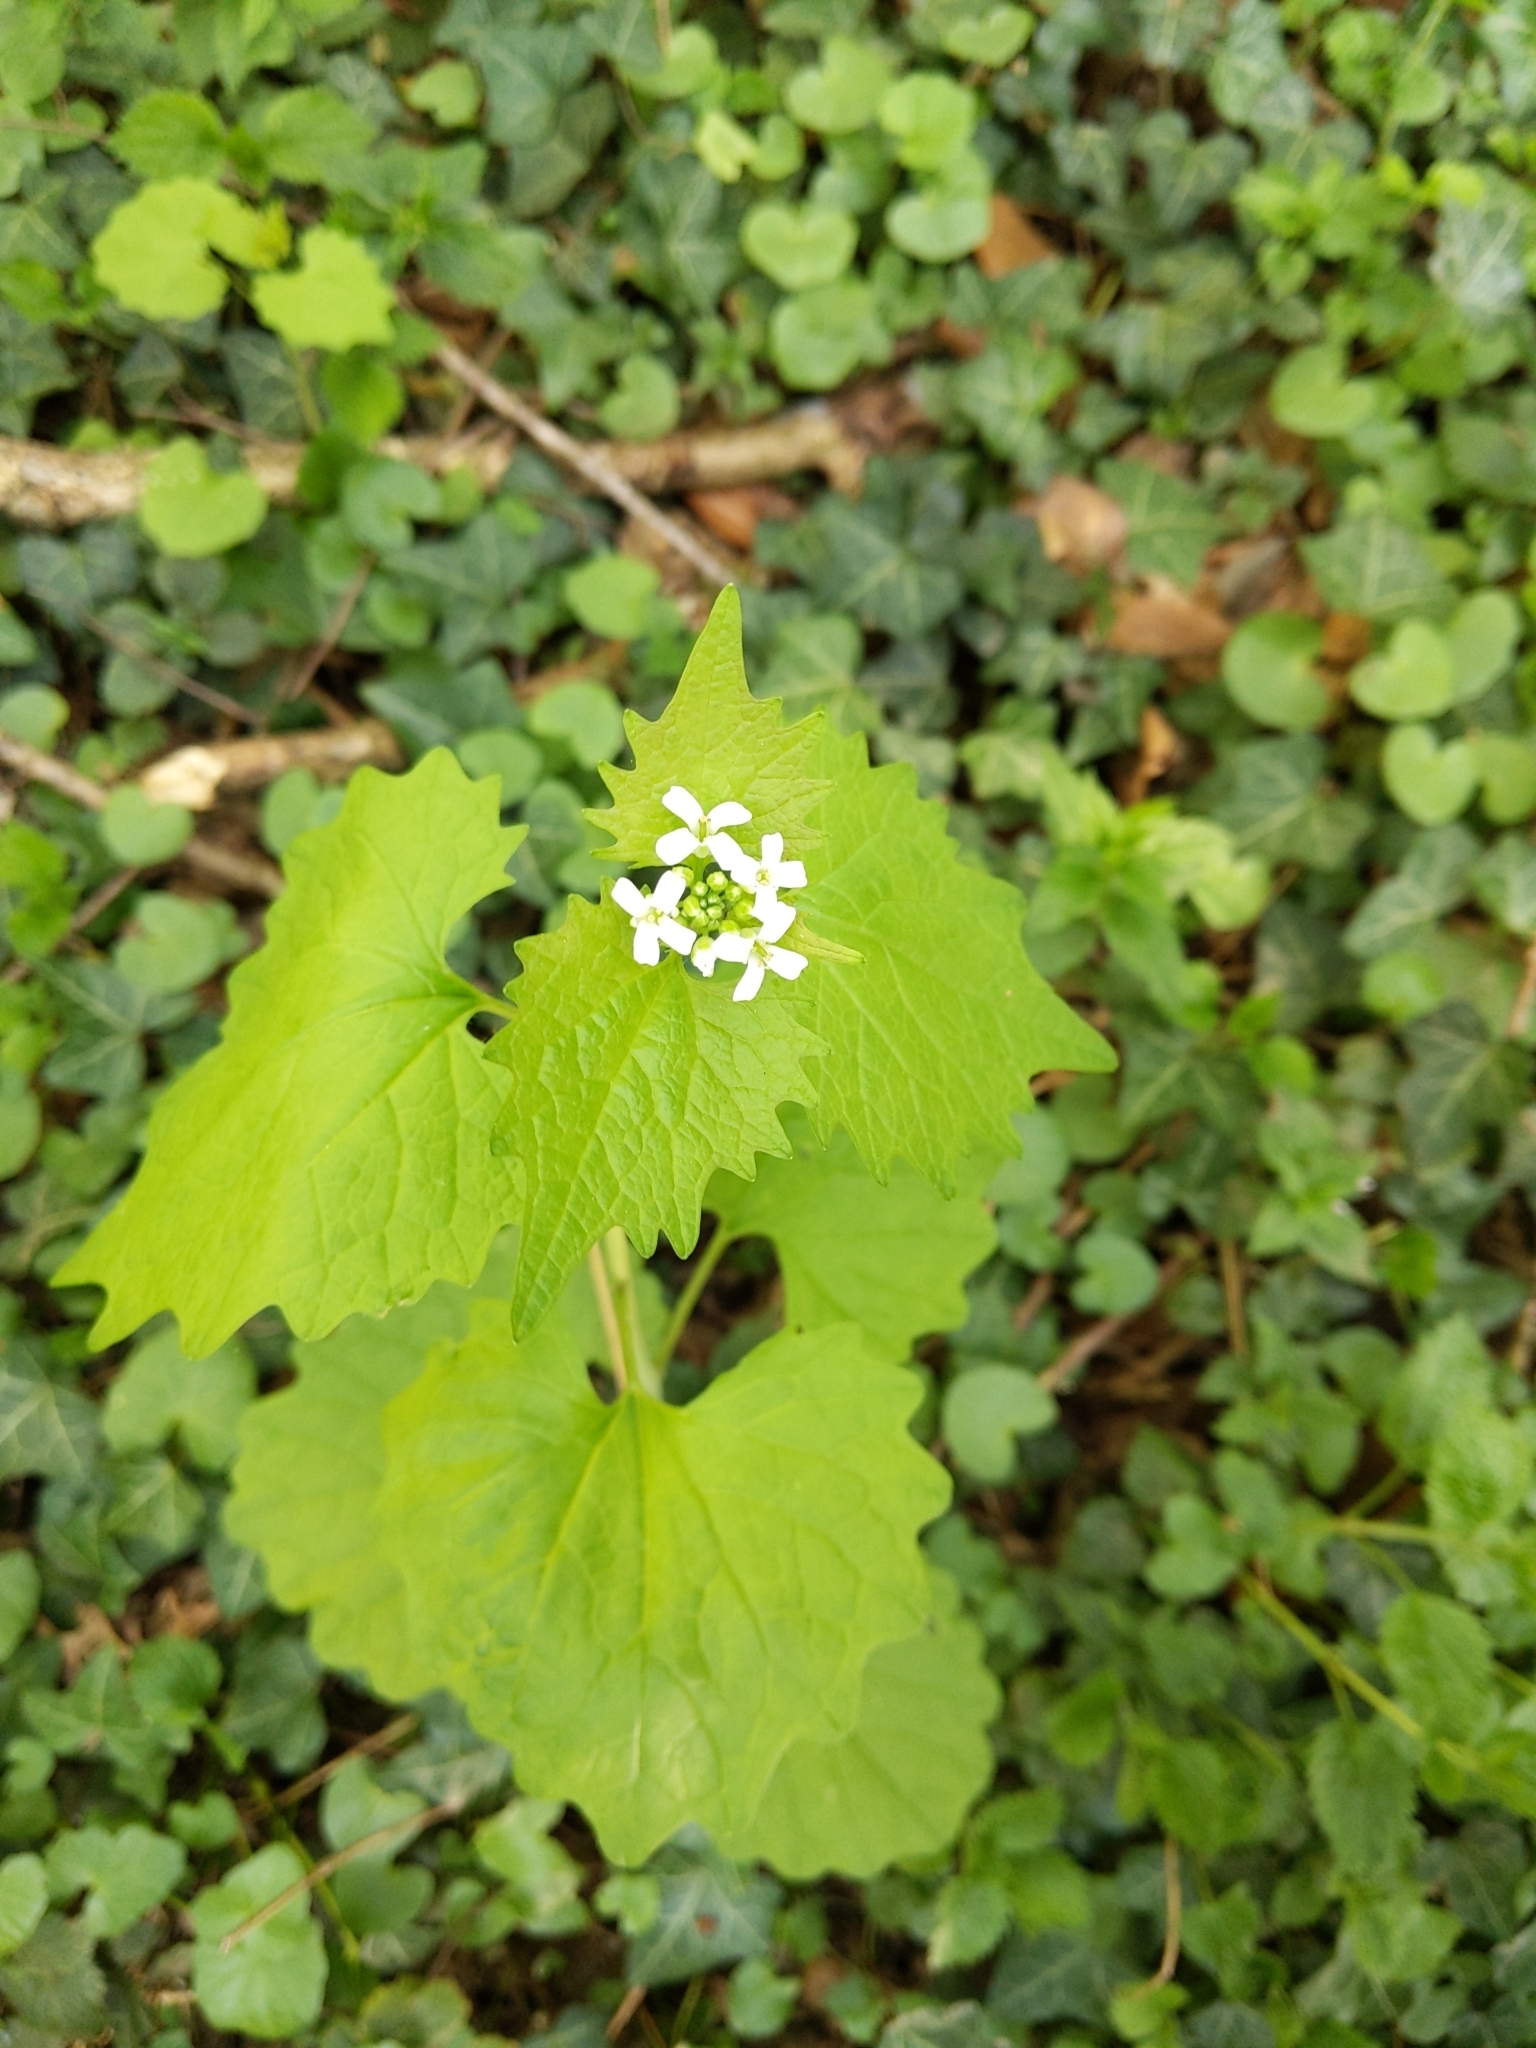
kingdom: Plantae
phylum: Tracheophyta
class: Magnoliopsida
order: Brassicales
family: Brassicaceae
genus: Alliaria
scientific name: Alliaria petiolata
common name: Garlic mustard
